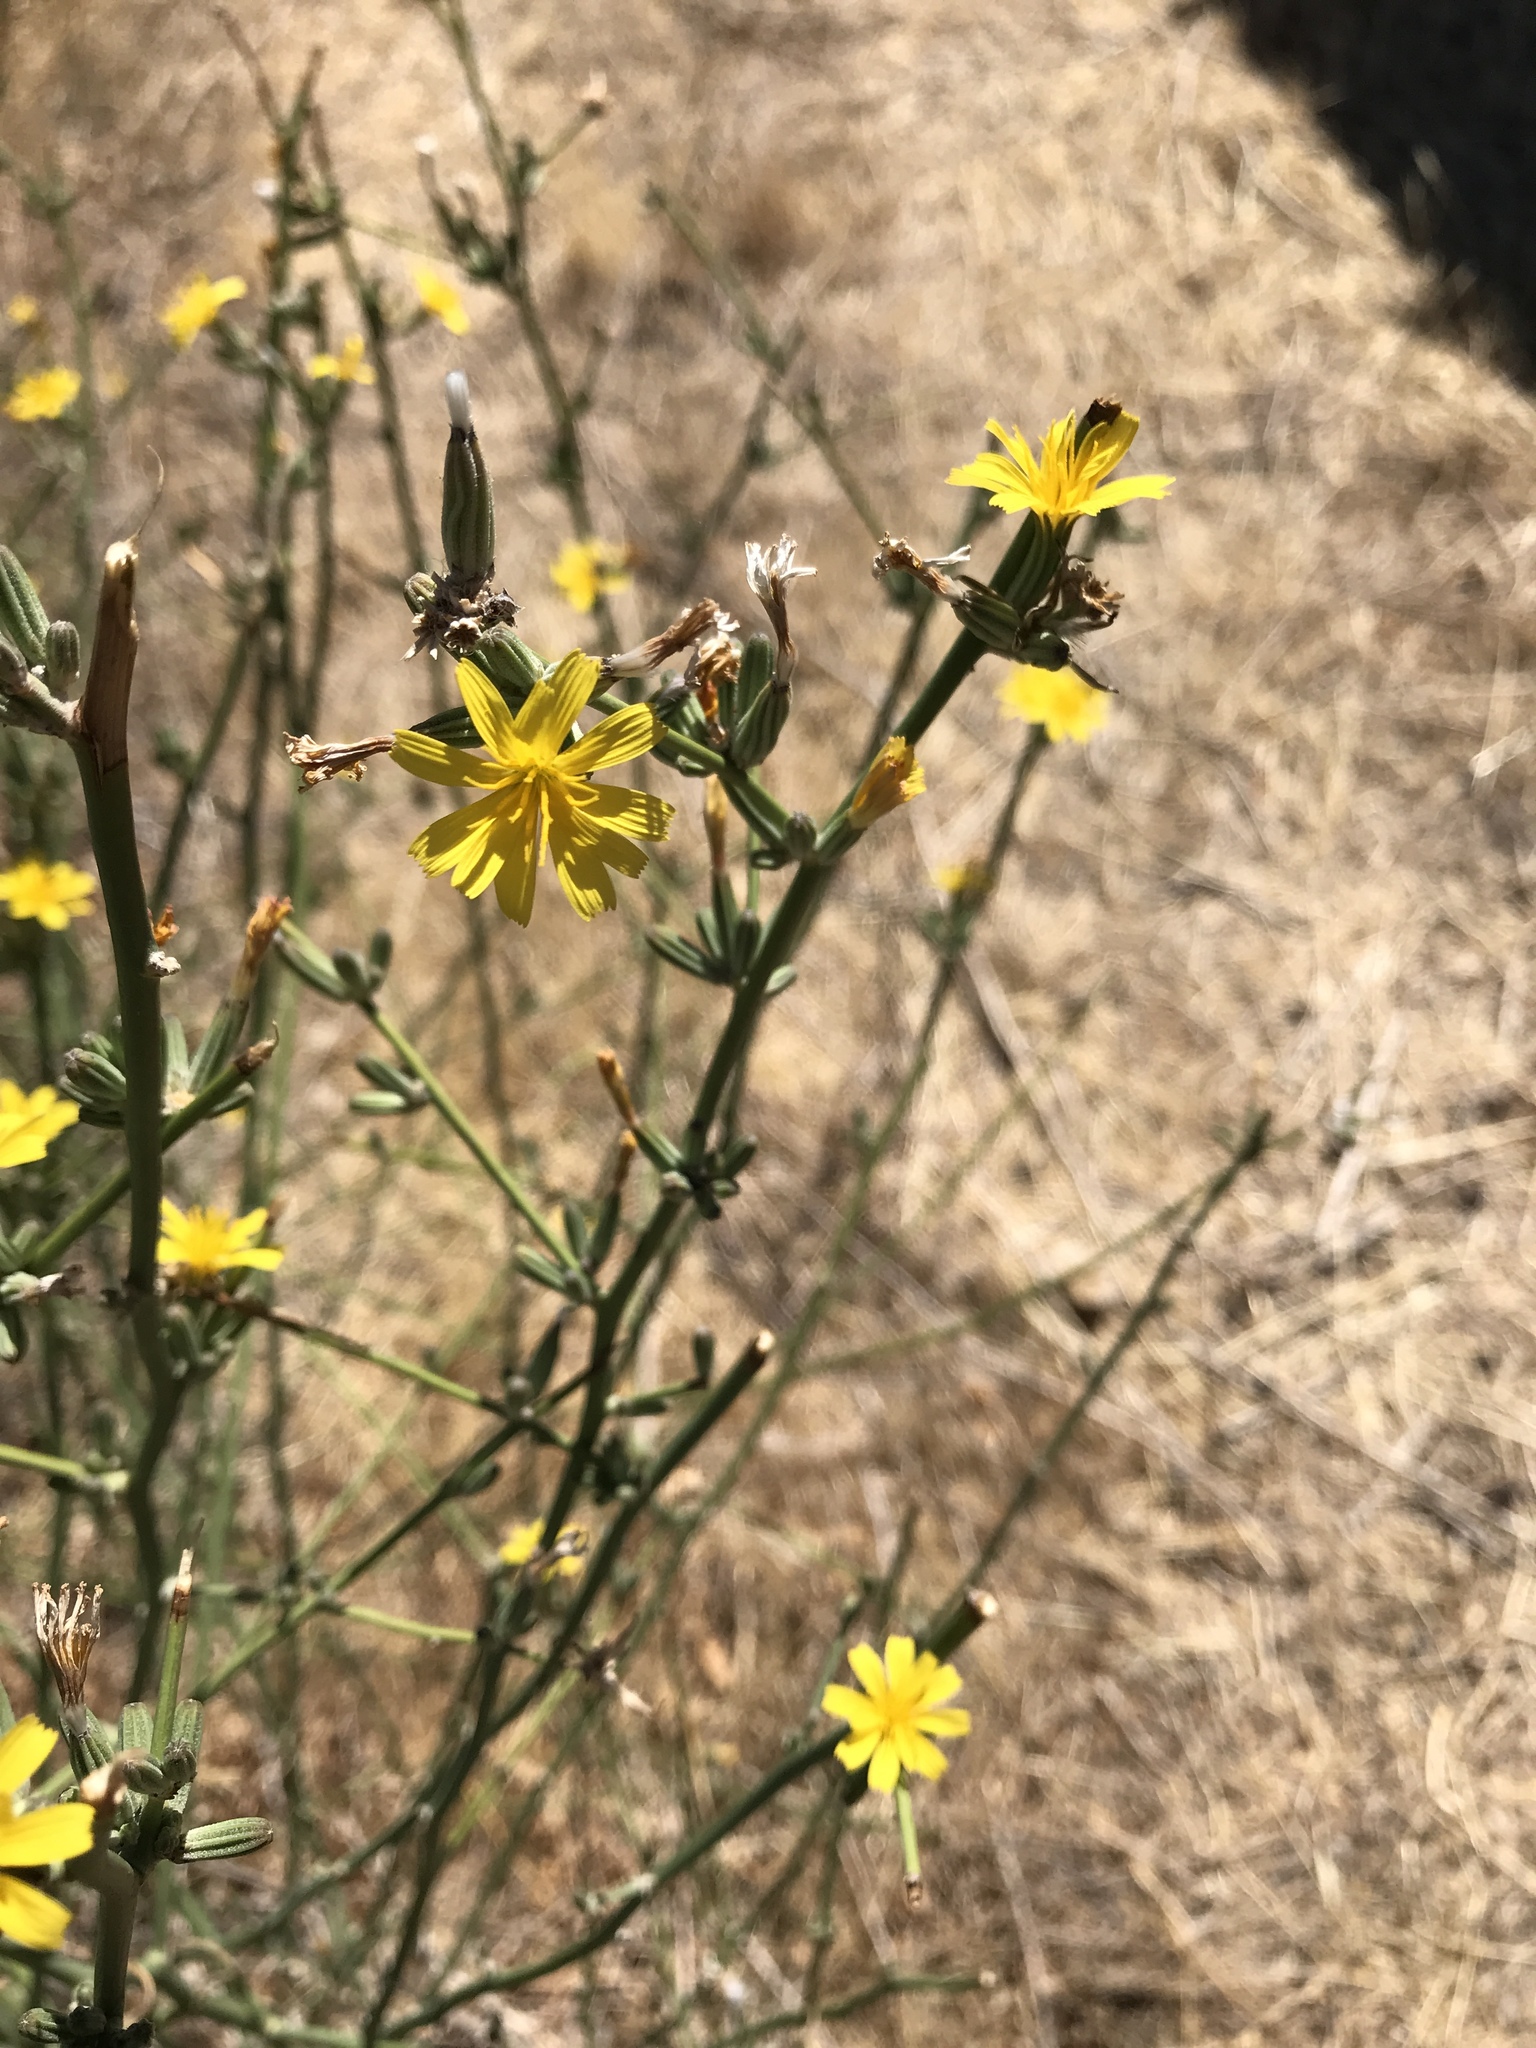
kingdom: Plantae
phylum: Tracheophyta
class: Magnoliopsida
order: Asterales
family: Asteraceae
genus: Chondrilla
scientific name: Chondrilla juncea
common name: Skeleton weed
